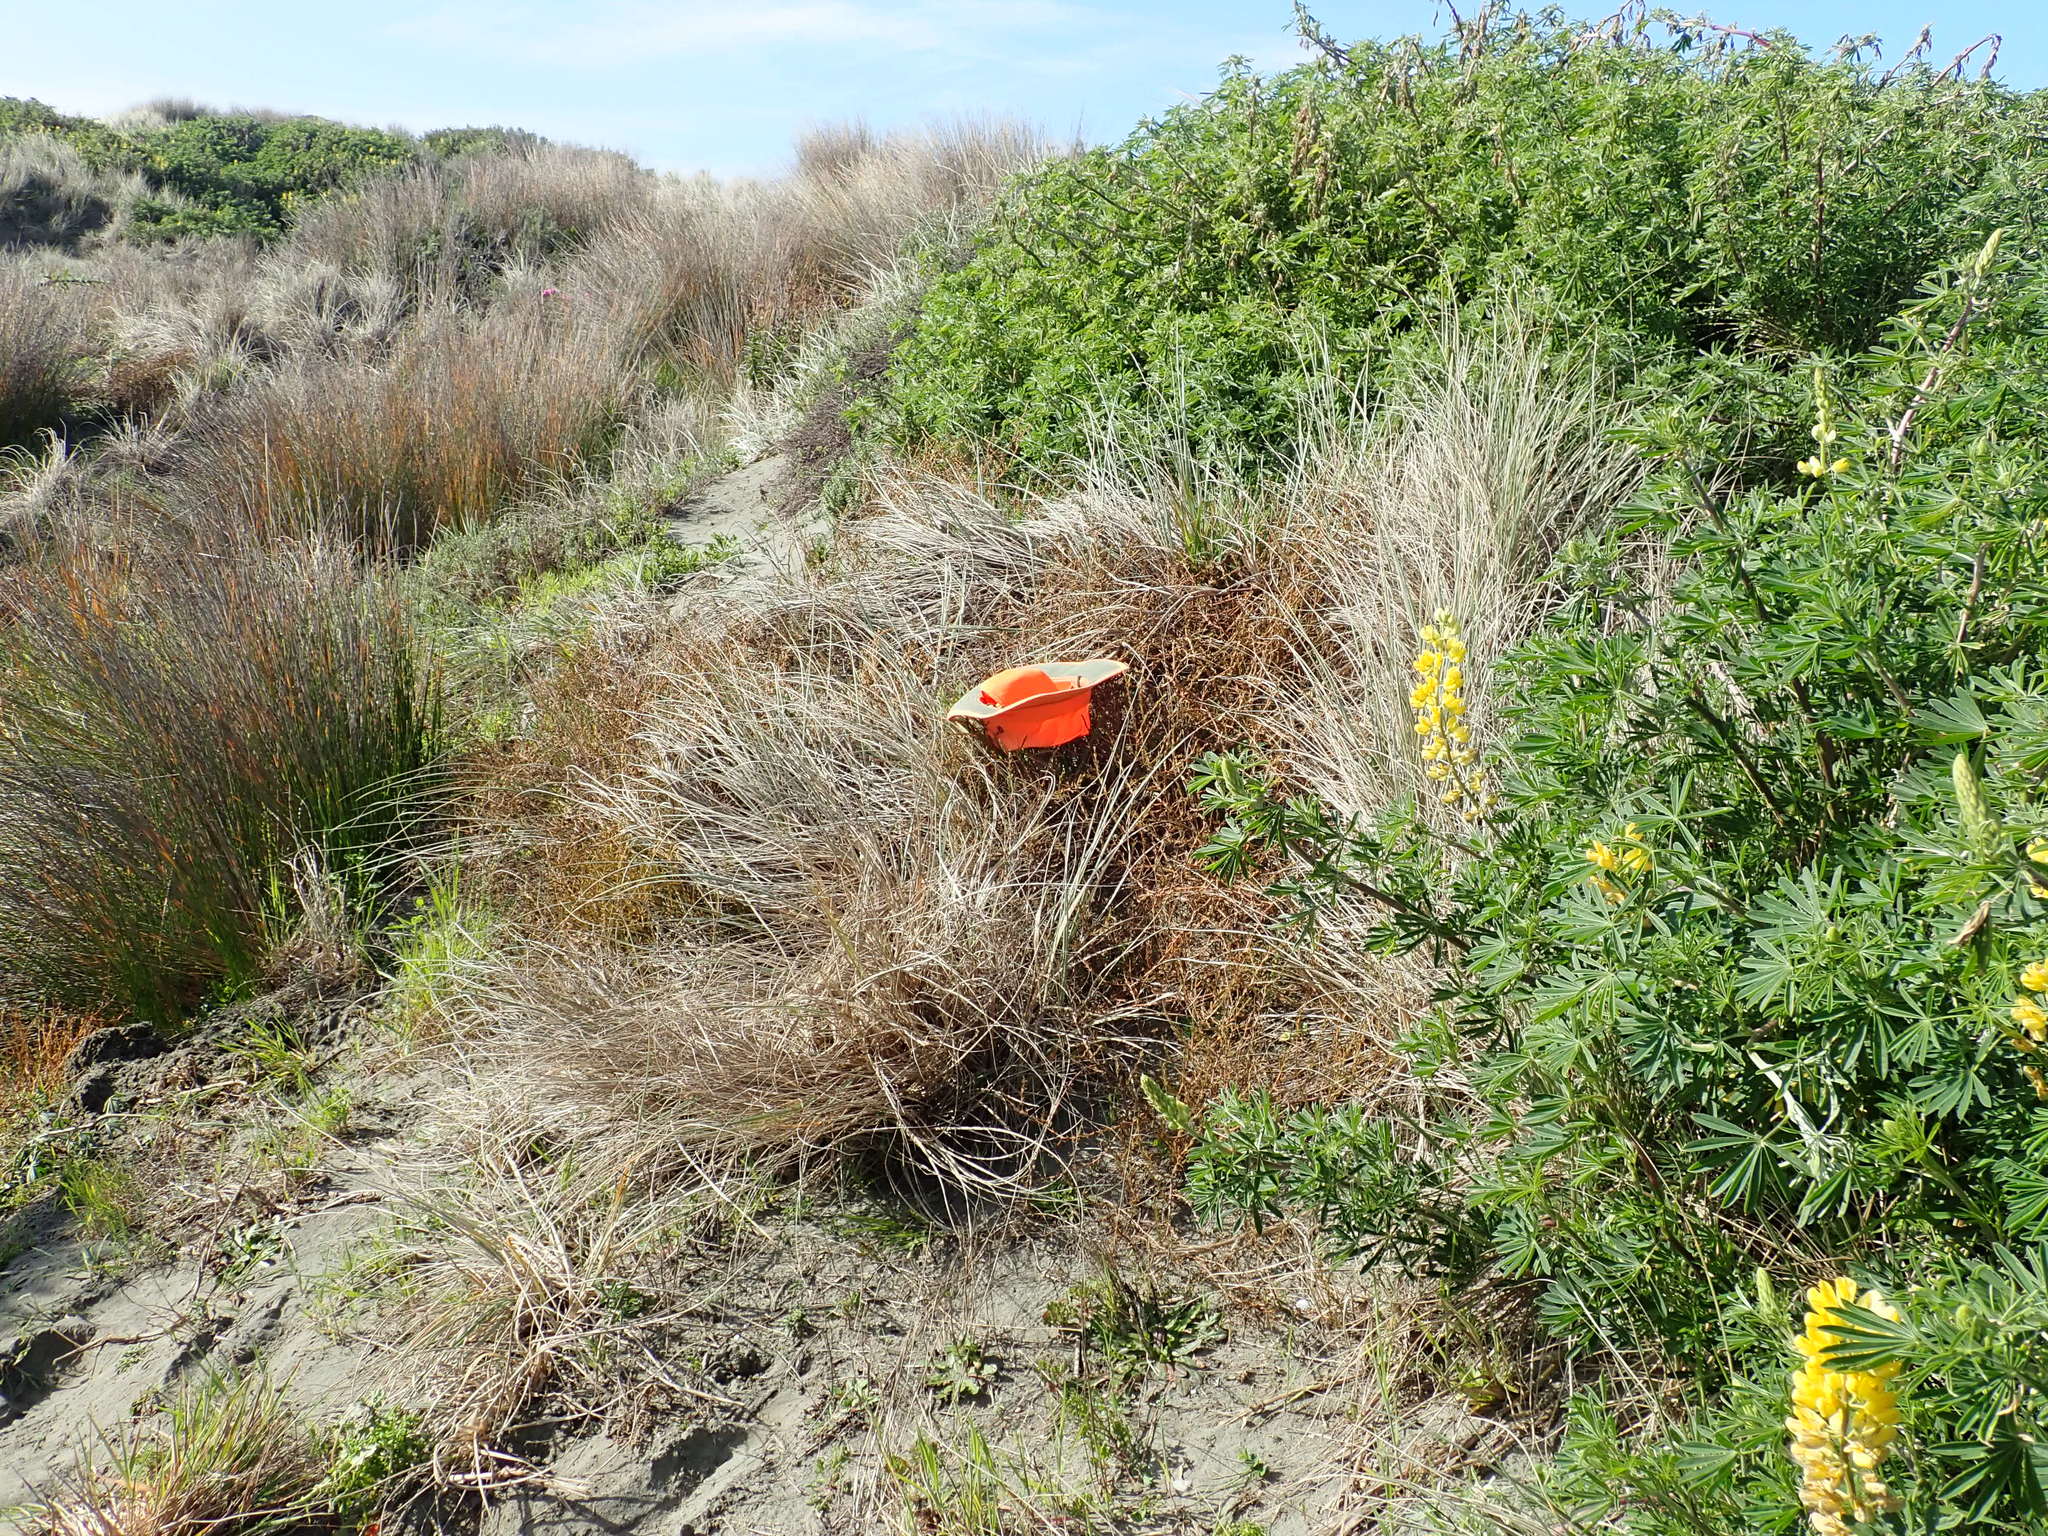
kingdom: Plantae
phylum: Tracheophyta
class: Magnoliopsida
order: Gentianales
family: Rubiaceae
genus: Coprosma
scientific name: Coprosma acerosa
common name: Sand coprosma
